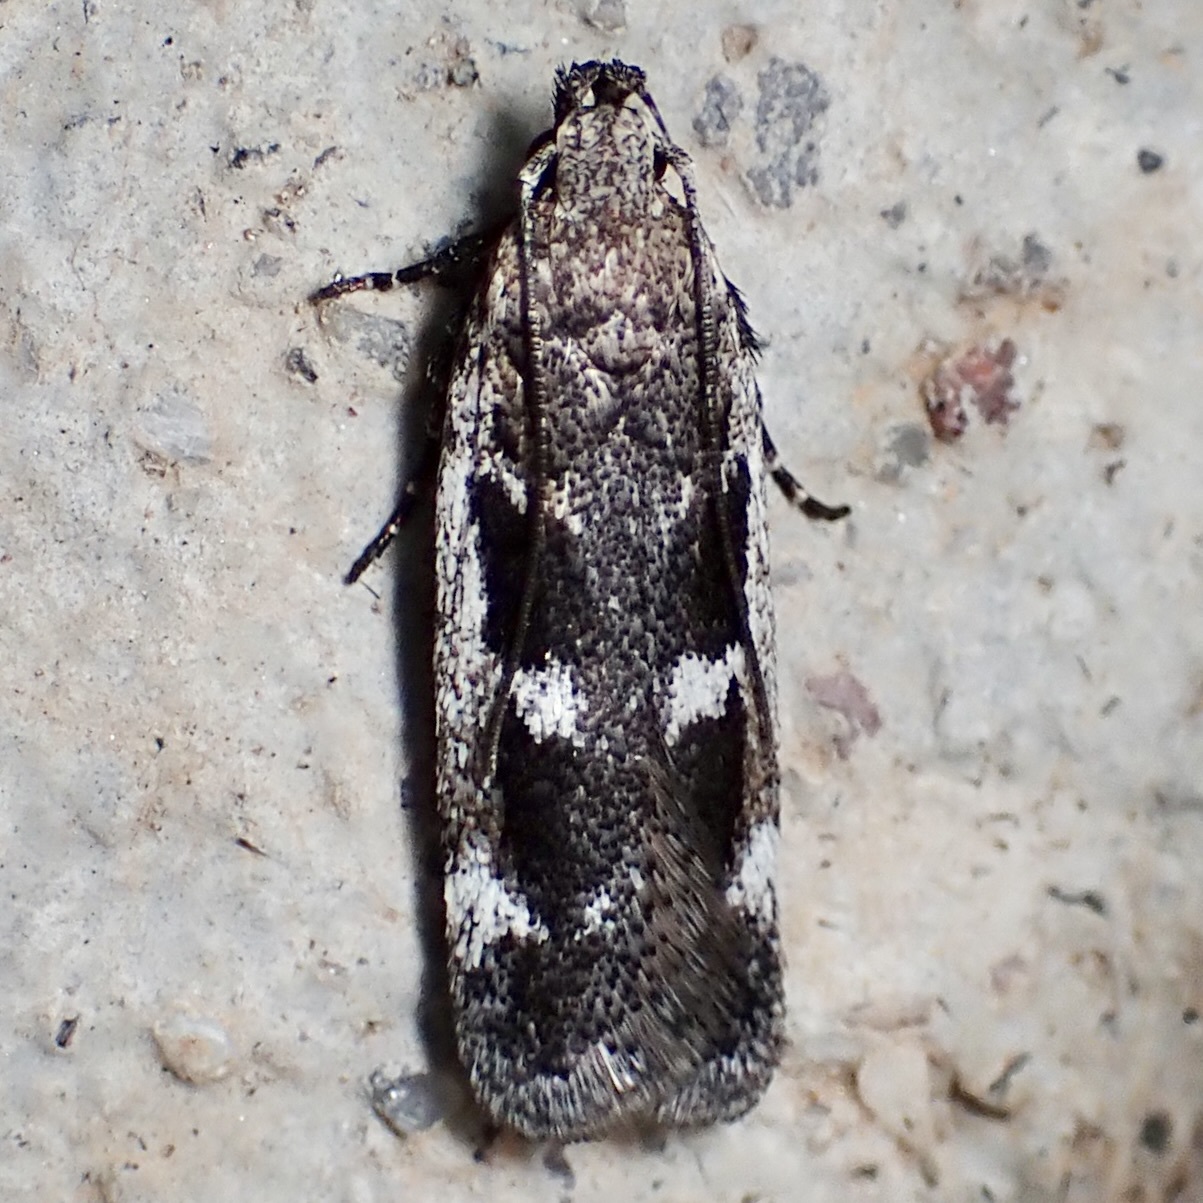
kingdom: Animalia
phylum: Arthropoda
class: Insecta
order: Lepidoptera
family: Gelechiidae
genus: Filatima
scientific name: Filatima obidenna
